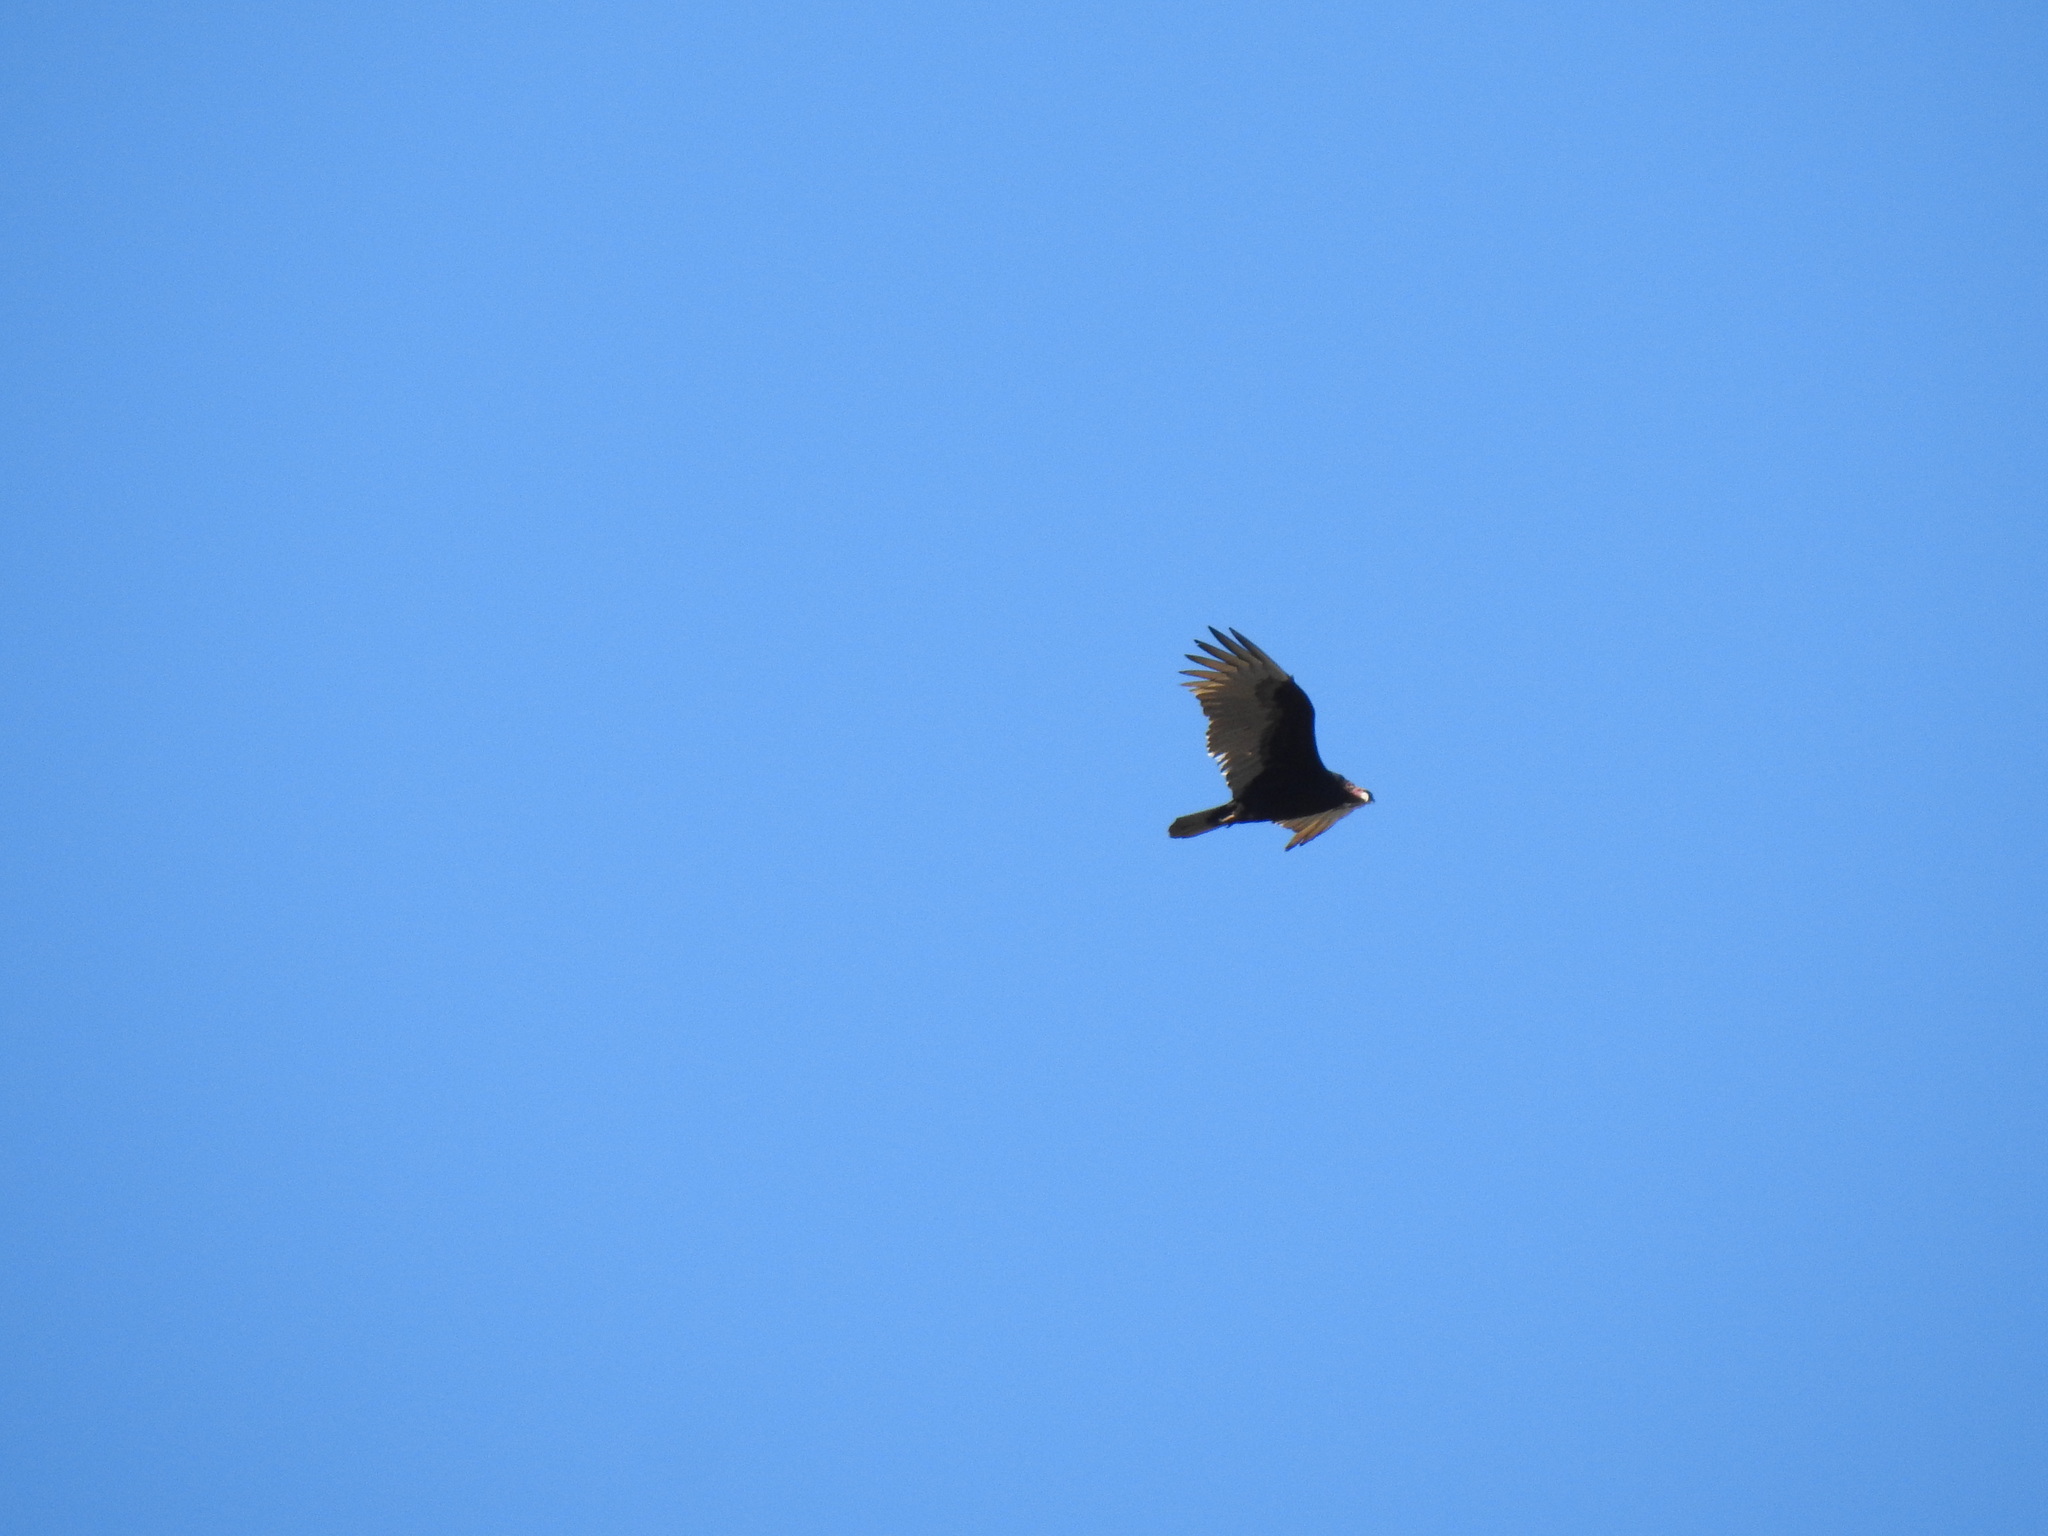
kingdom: Animalia
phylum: Chordata
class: Aves
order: Accipitriformes
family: Cathartidae
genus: Cathartes
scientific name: Cathartes aura
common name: Turkey vulture
